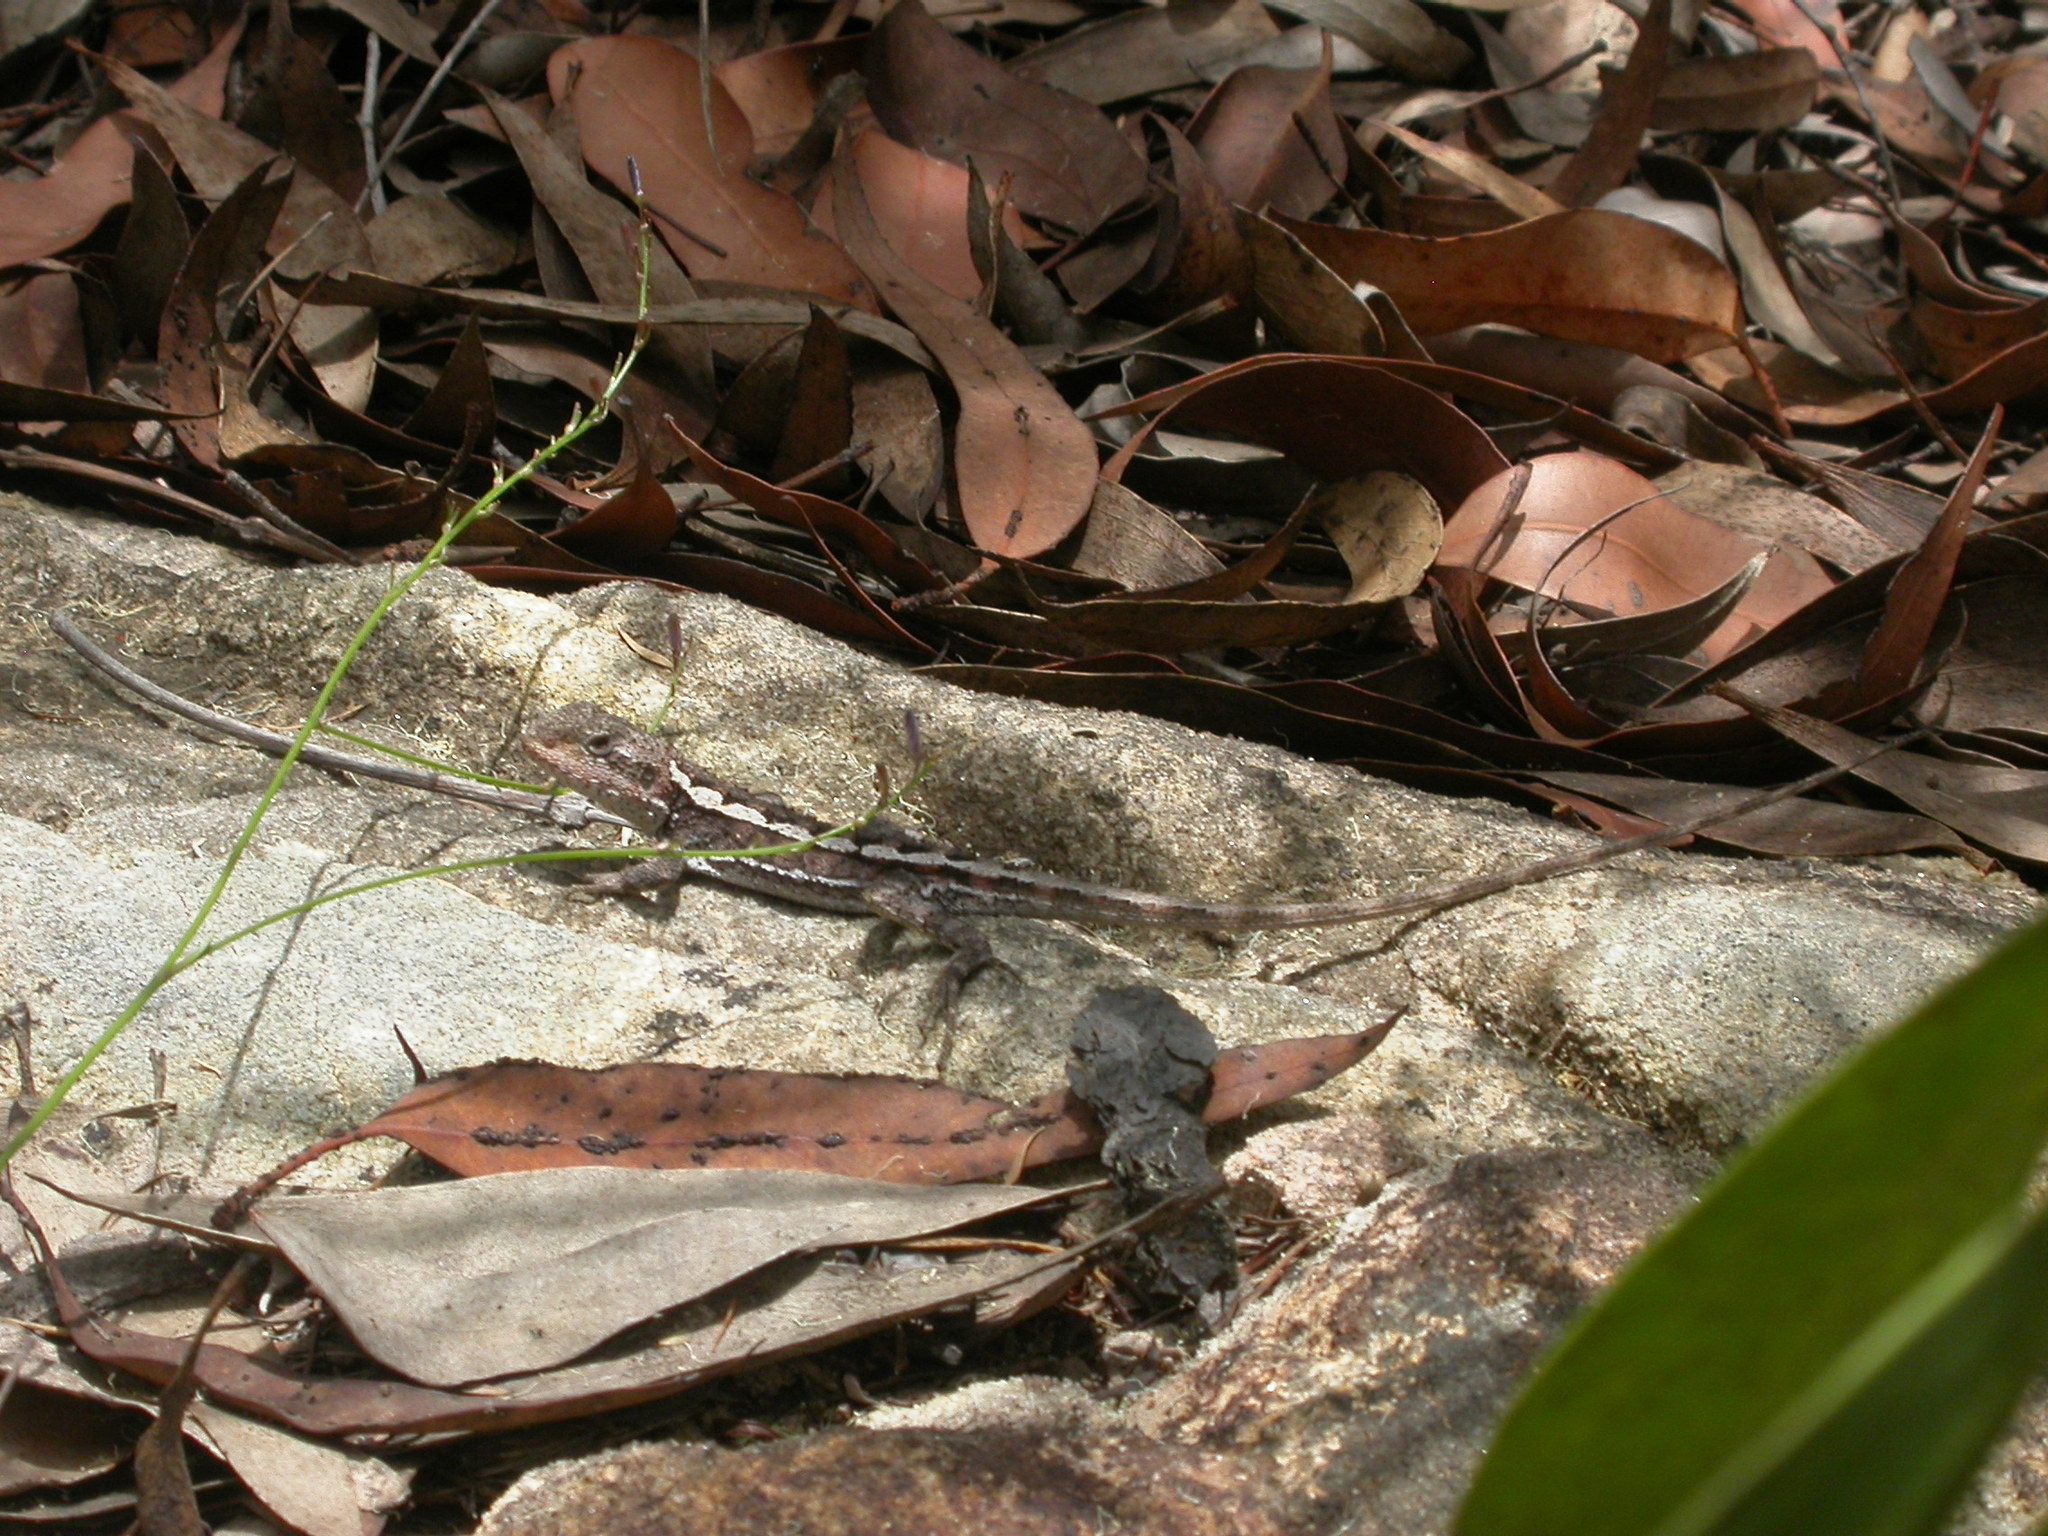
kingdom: Animalia
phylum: Chordata
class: Squamata
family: Agamidae
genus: Rankinia
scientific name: Rankinia diemensis
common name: Mountain dragon
